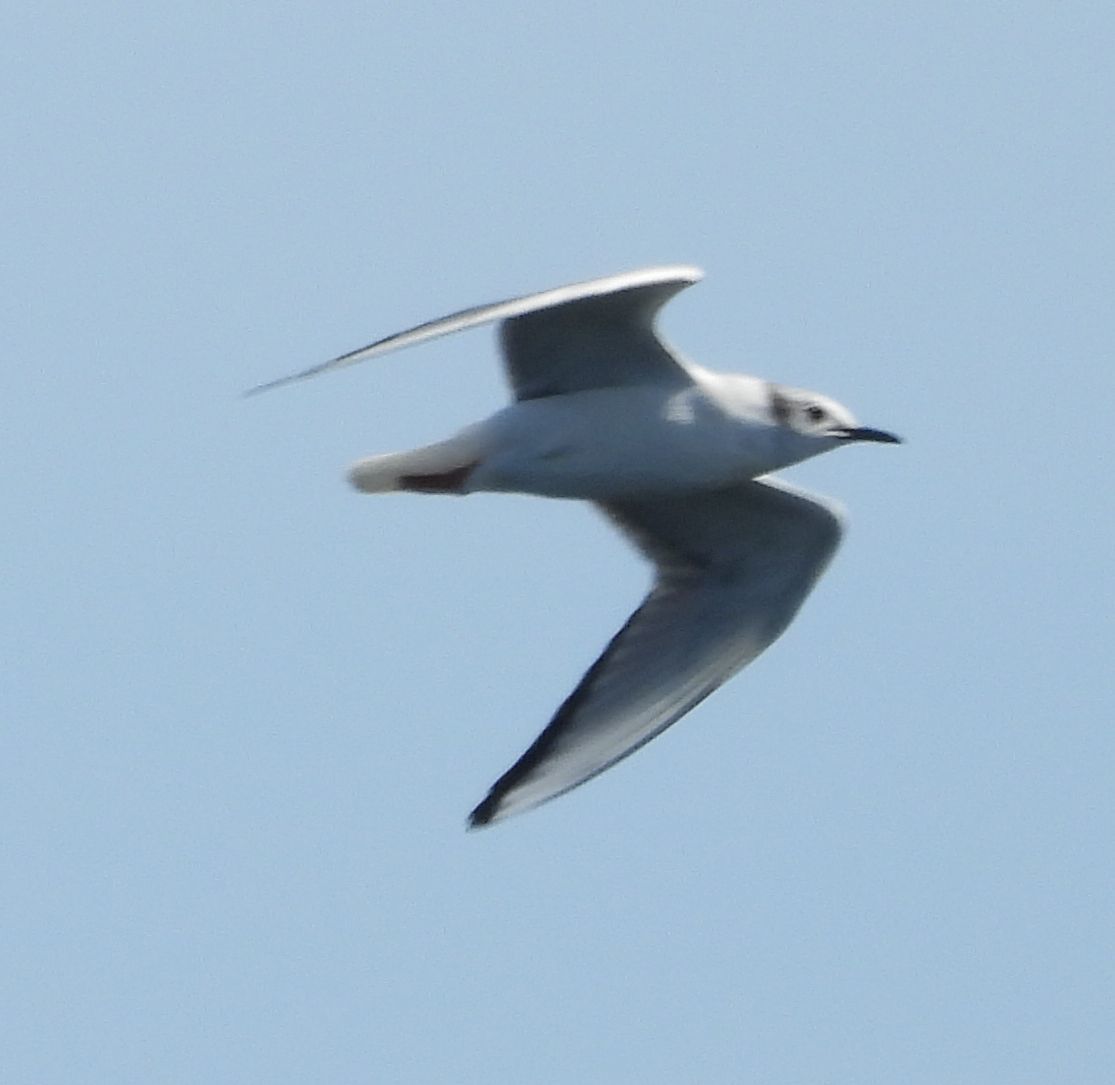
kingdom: Animalia
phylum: Chordata
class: Aves
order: Charadriiformes
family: Laridae
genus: Chroicocephalus
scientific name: Chroicocephalus philadelphia
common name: Bonaparte's gull
